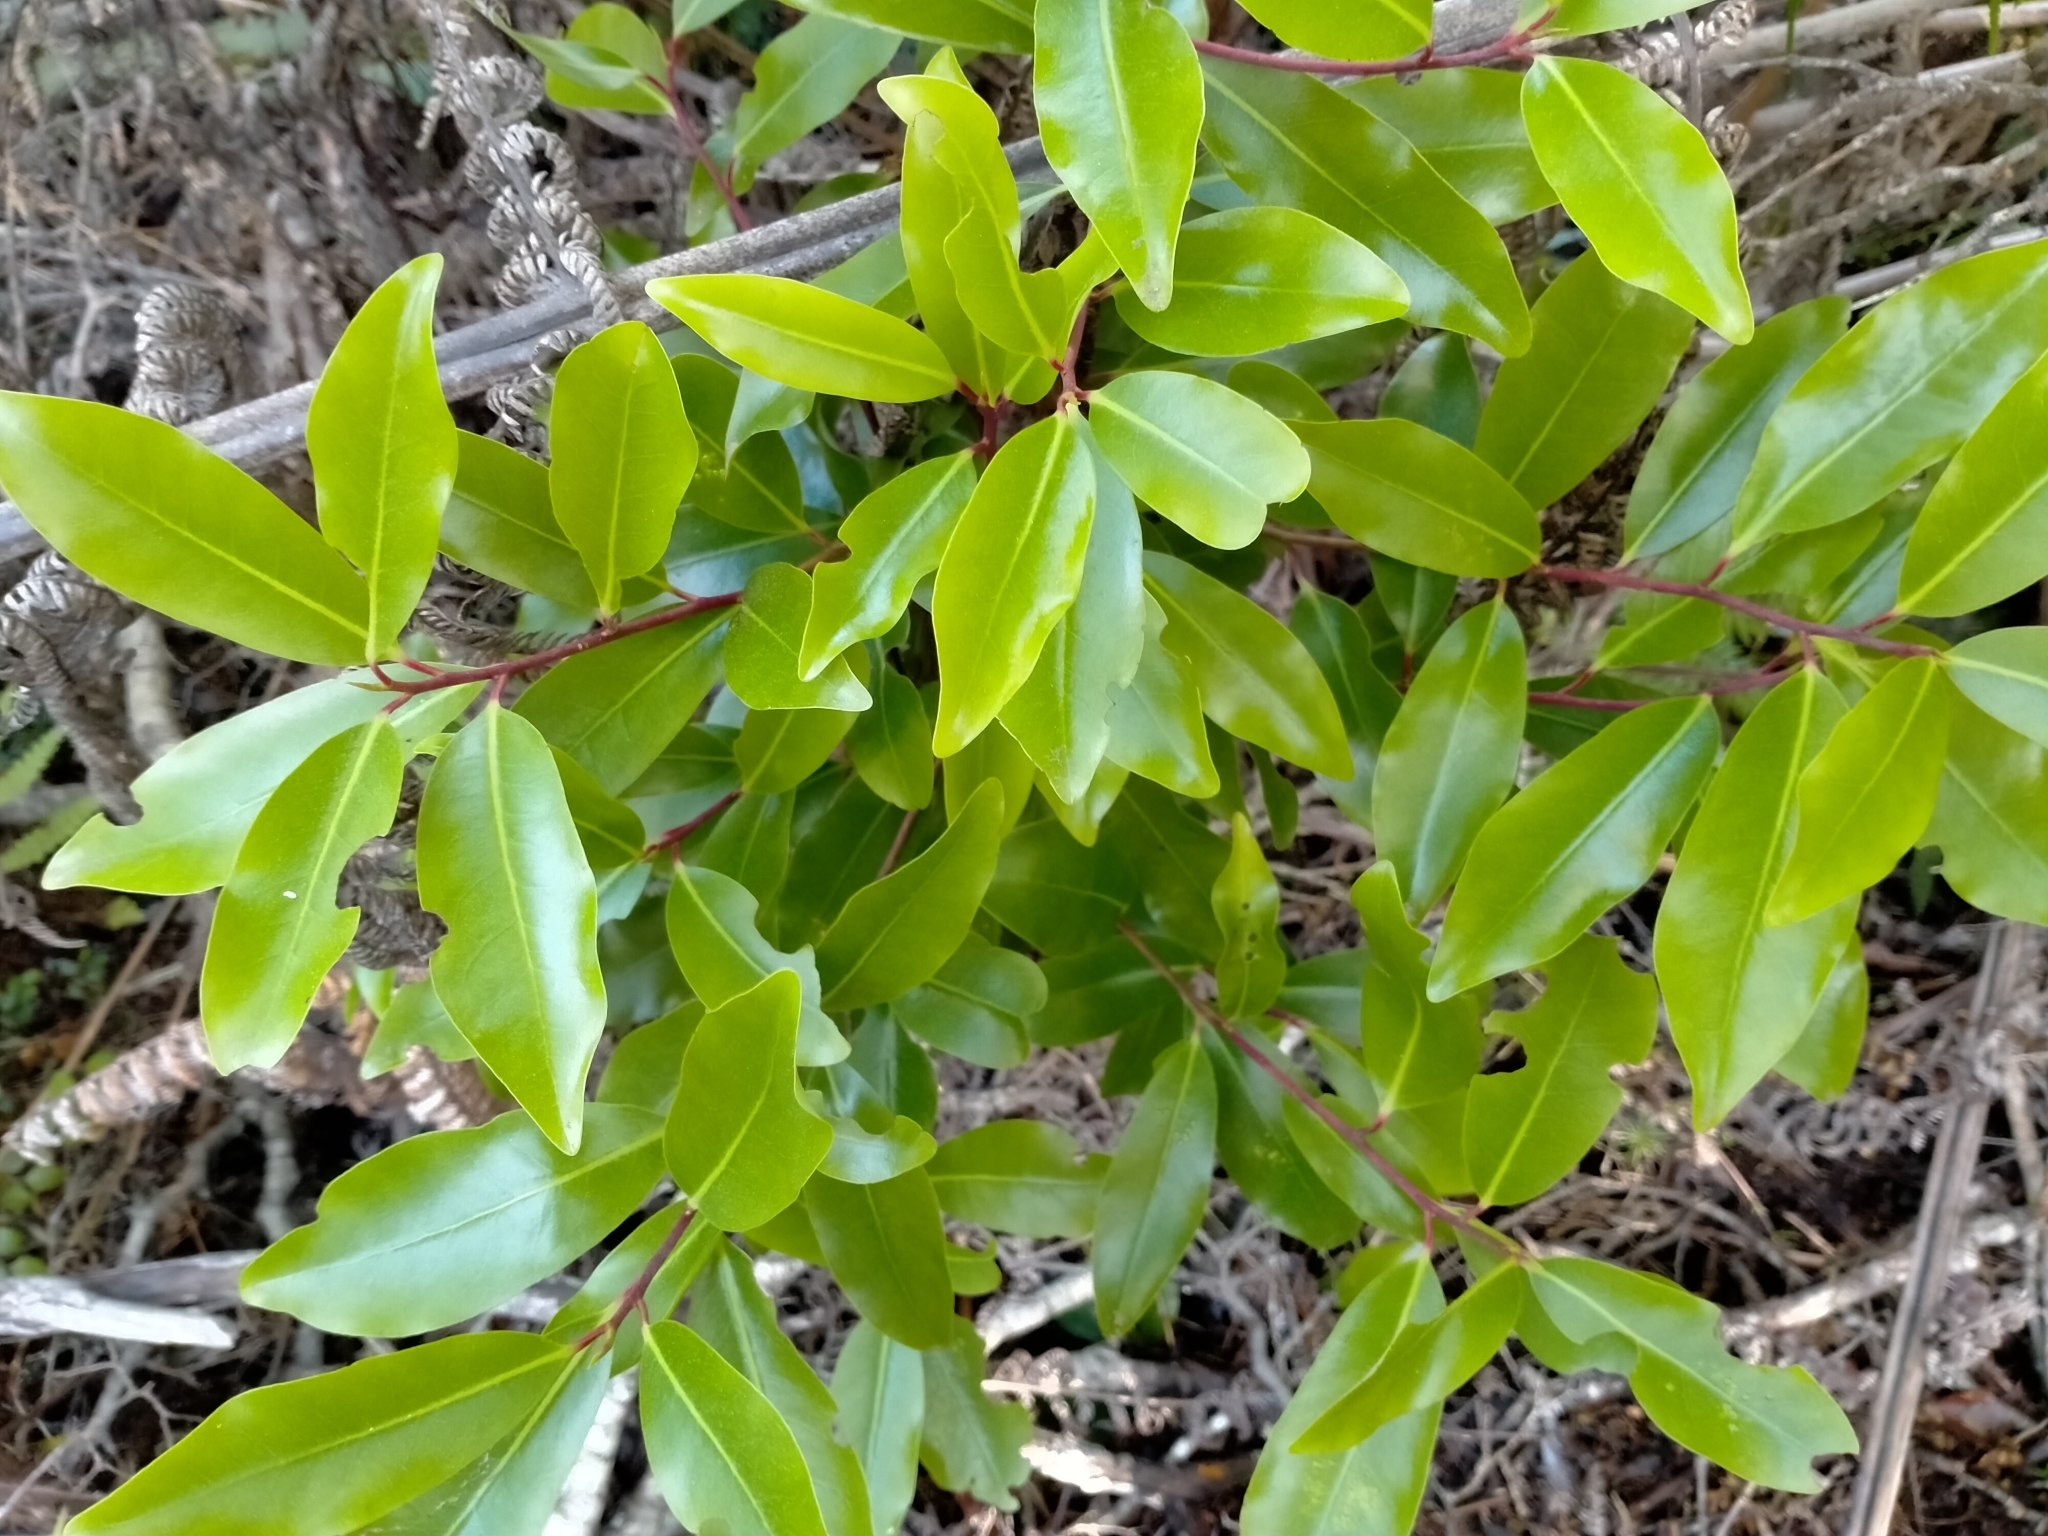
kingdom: Plantae
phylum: Tracheophyta
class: Magnoliopsida
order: Canellales
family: Winteraceae
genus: Pseudowintera
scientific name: Pseudowintera axillaris
